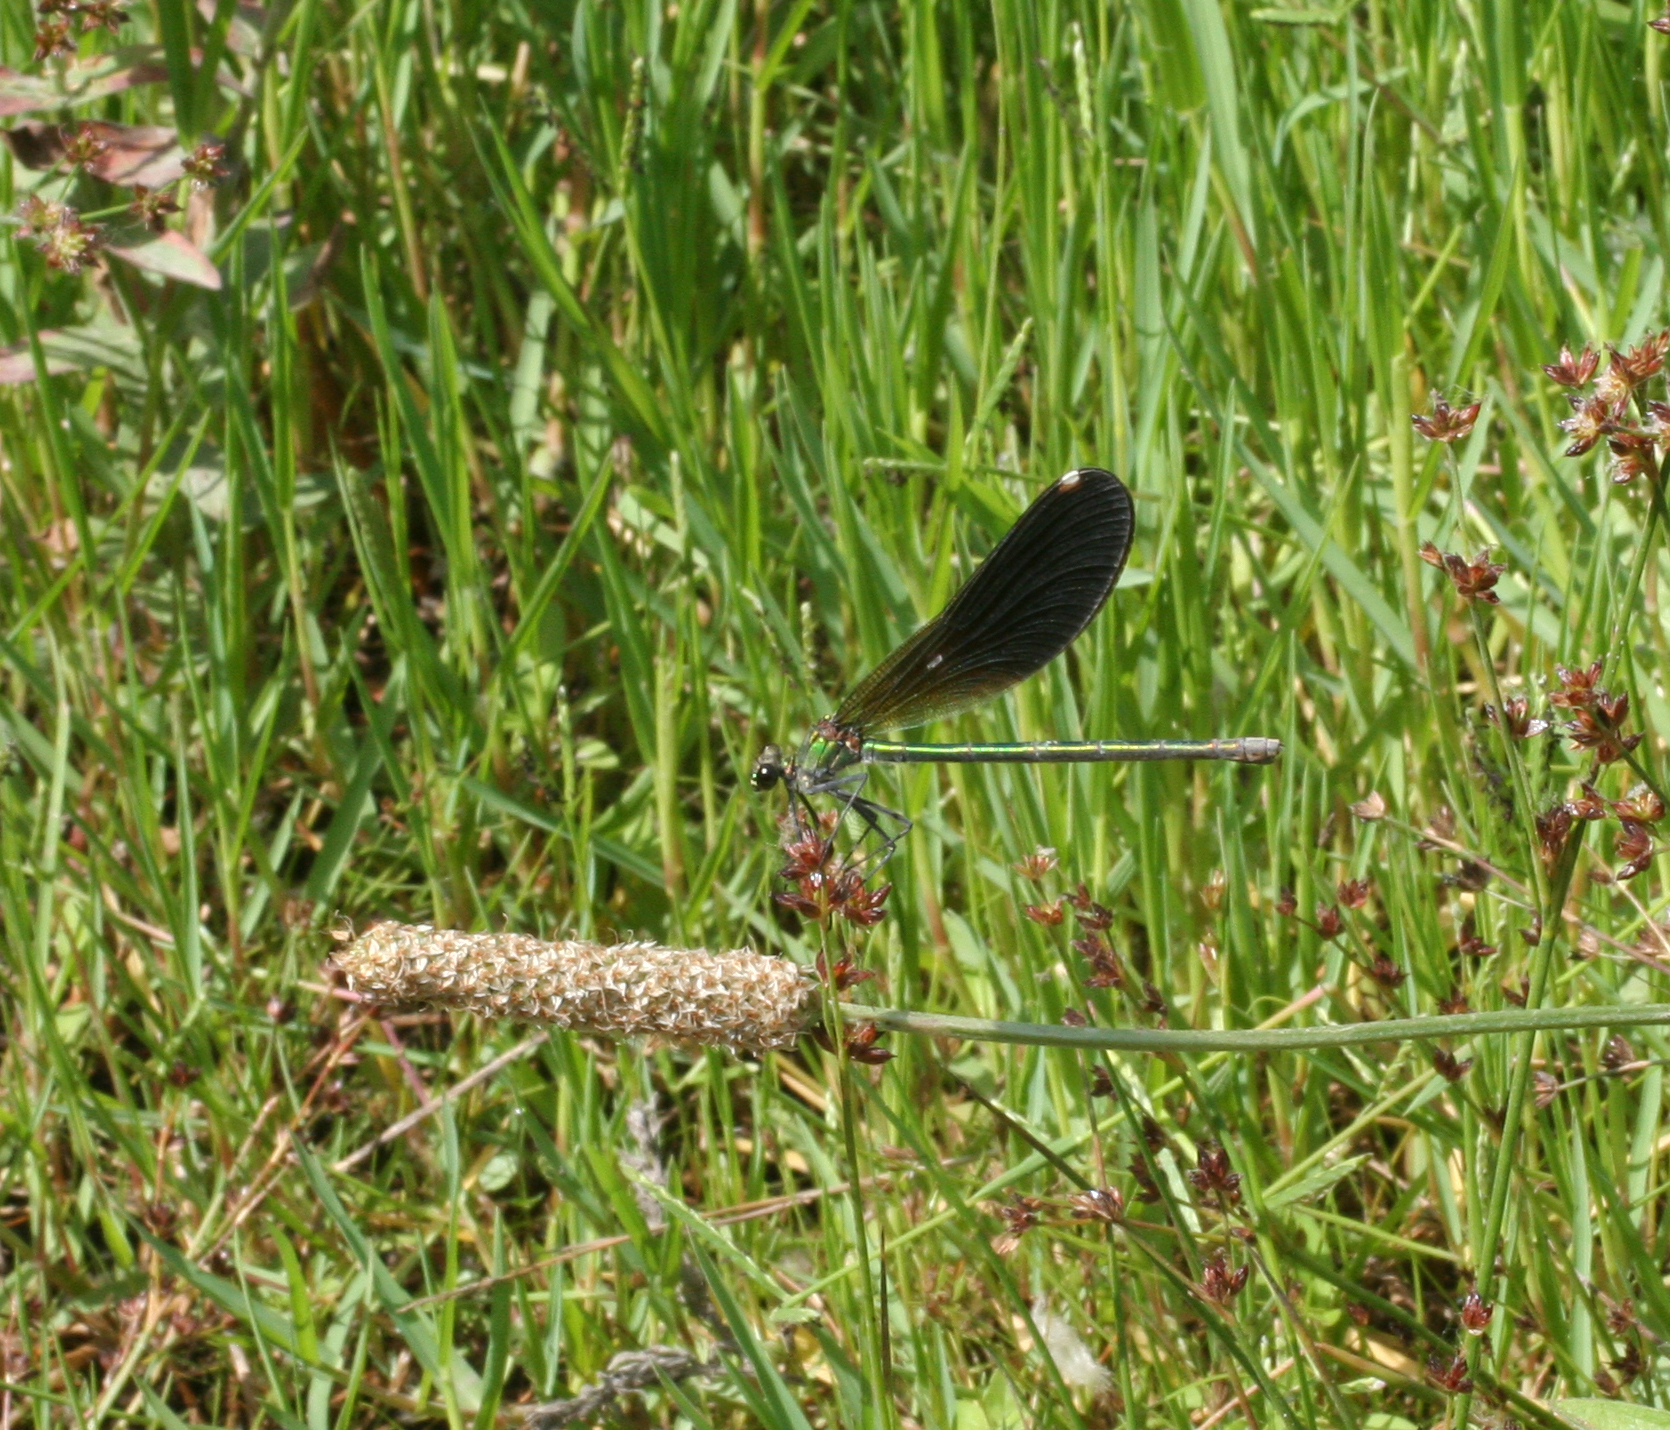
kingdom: Animalia
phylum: Arthropoda
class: Insecta
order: Odonata
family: Calopterygidae
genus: Calopteryx
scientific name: Calopteryx splendens
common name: Banded demoiselle
